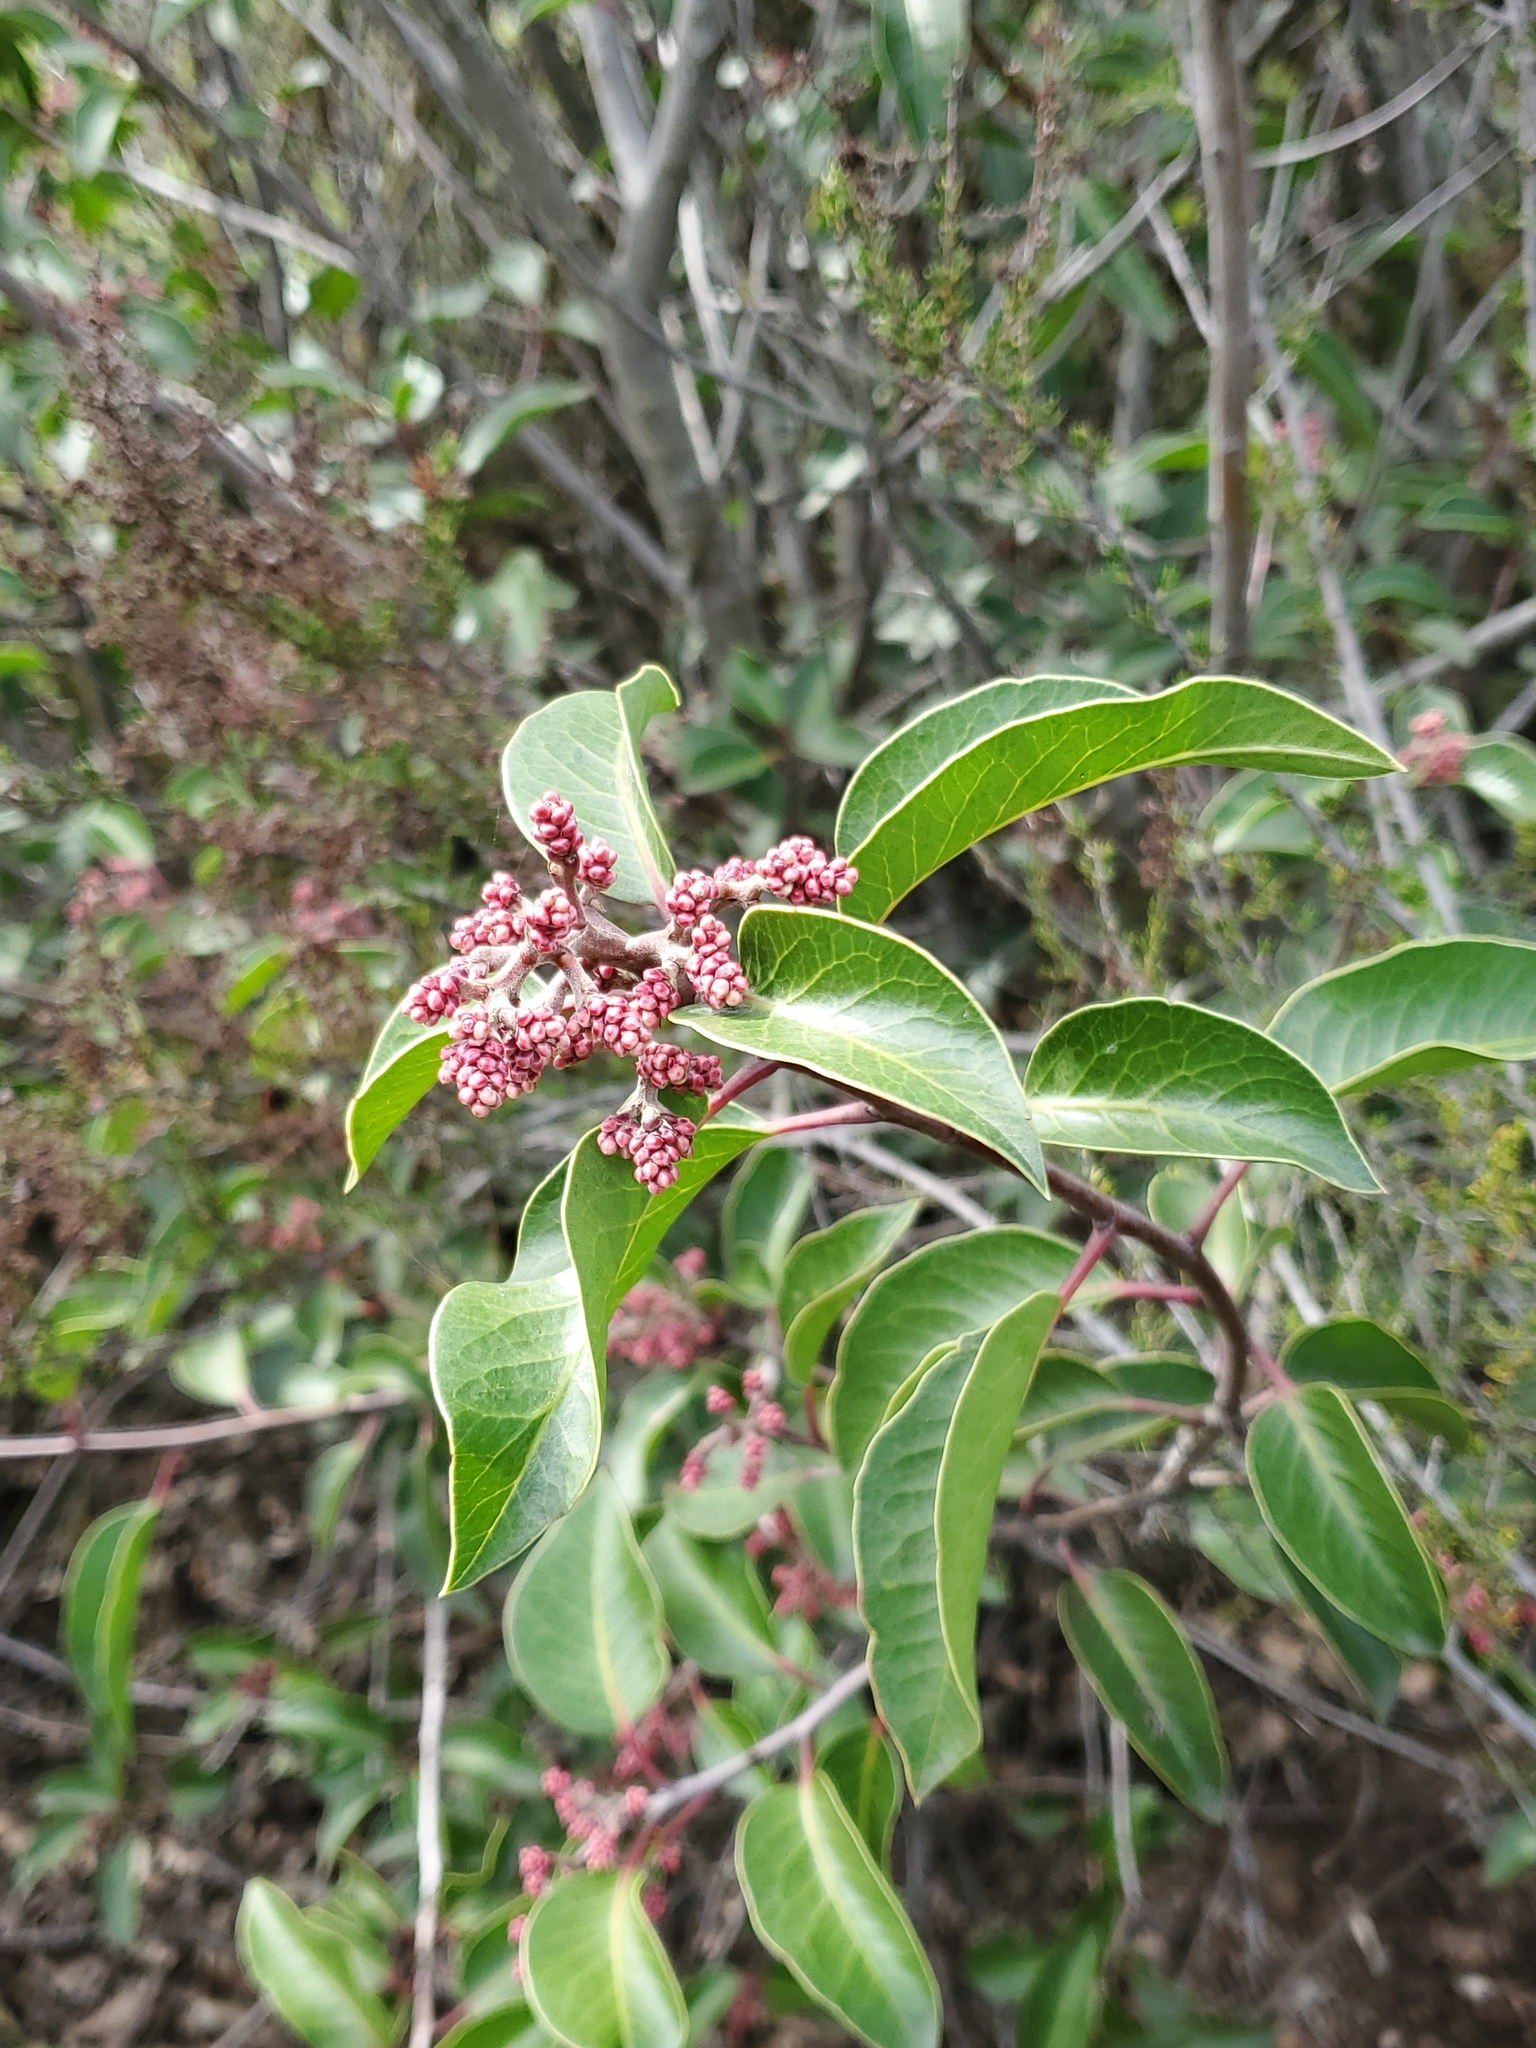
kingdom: Plantae
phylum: Tracheophyta
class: Magnoliopsida
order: Sapindales
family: Anacardiaceae
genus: Rhus
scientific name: Rhus ovata
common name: Sugar sumac
